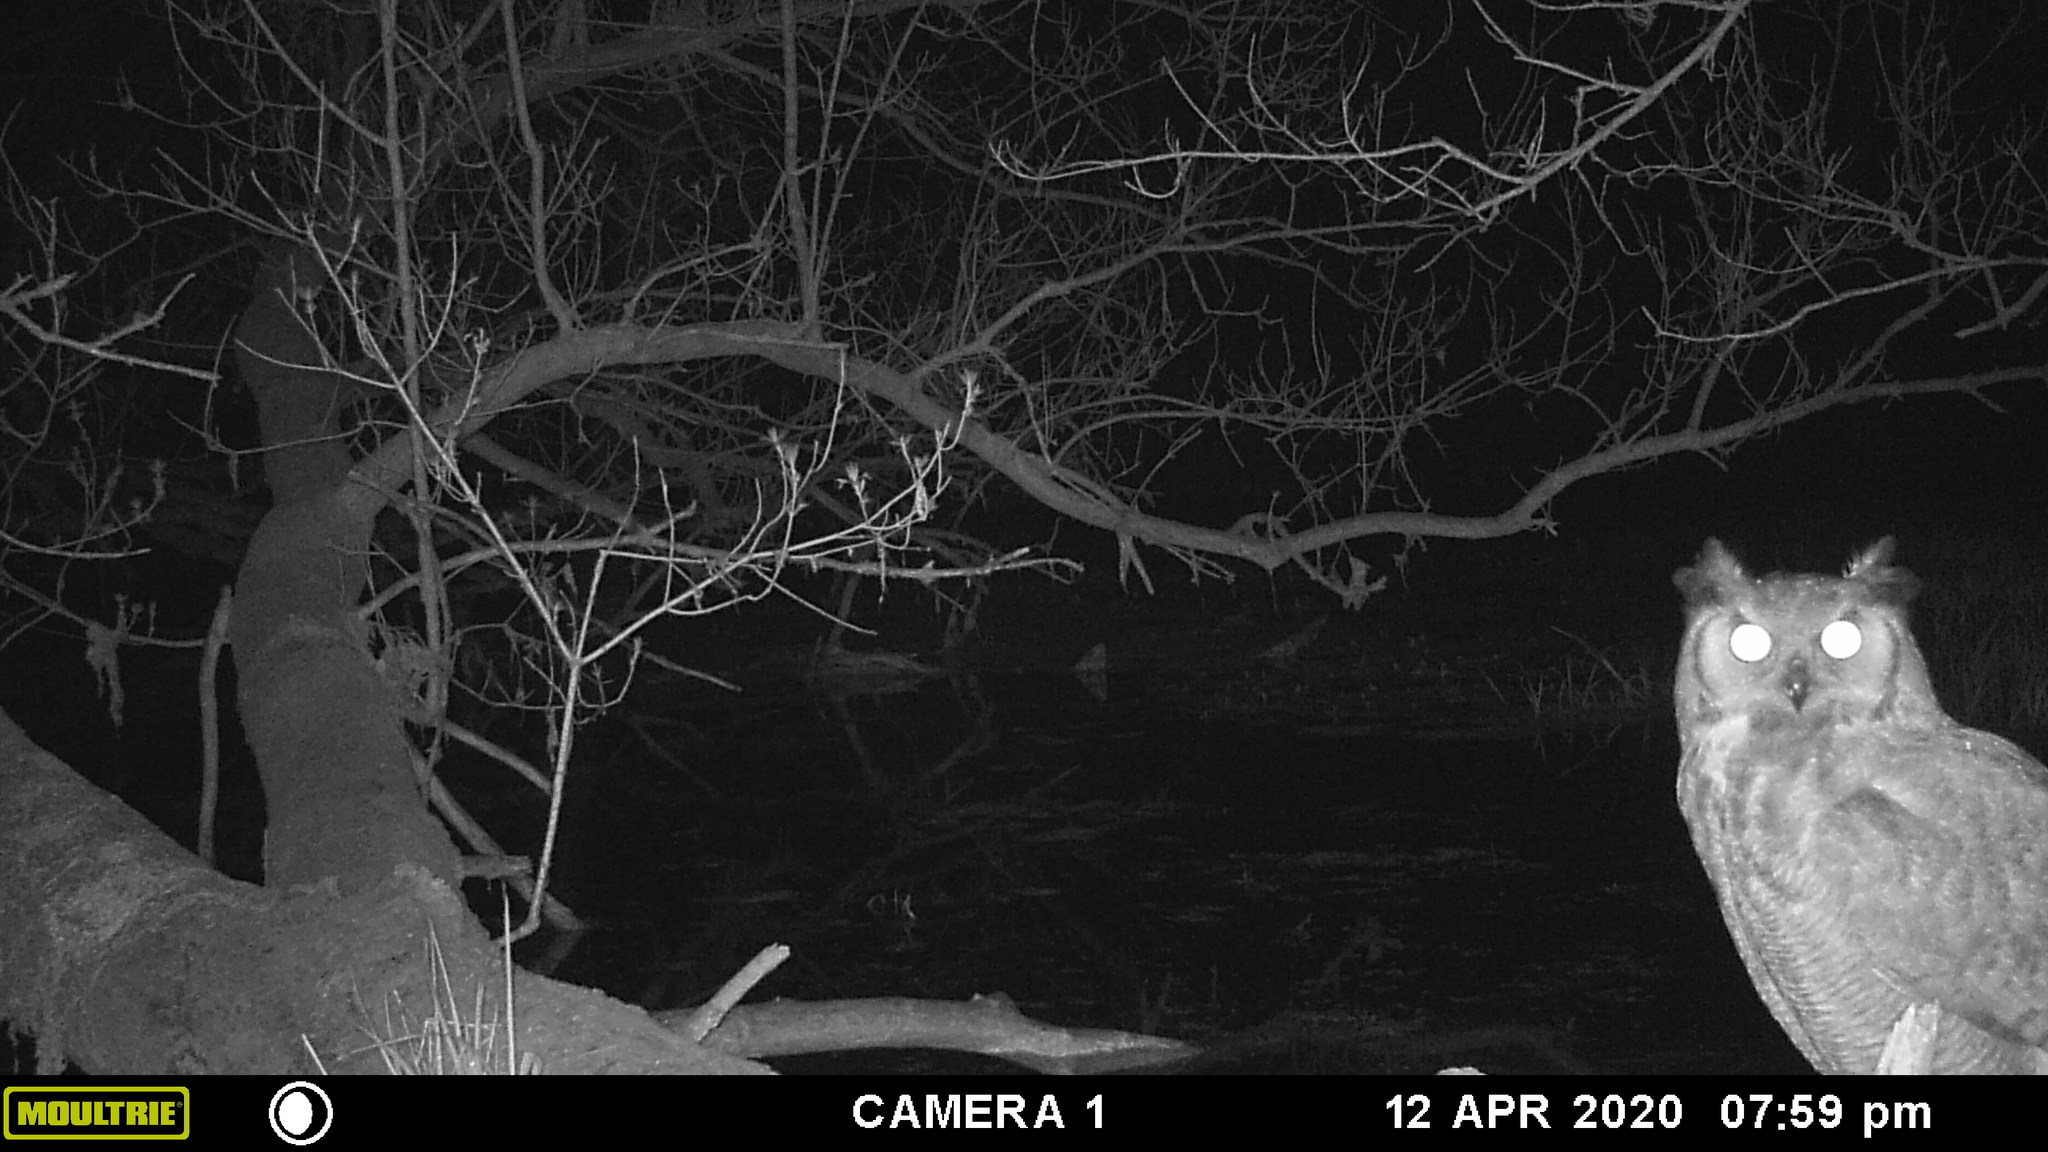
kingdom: Animalia
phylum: Chordata
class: Aves
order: Strigiformes
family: Strigidae
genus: Bubo
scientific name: Bubo virginianus
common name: Great horned owl
